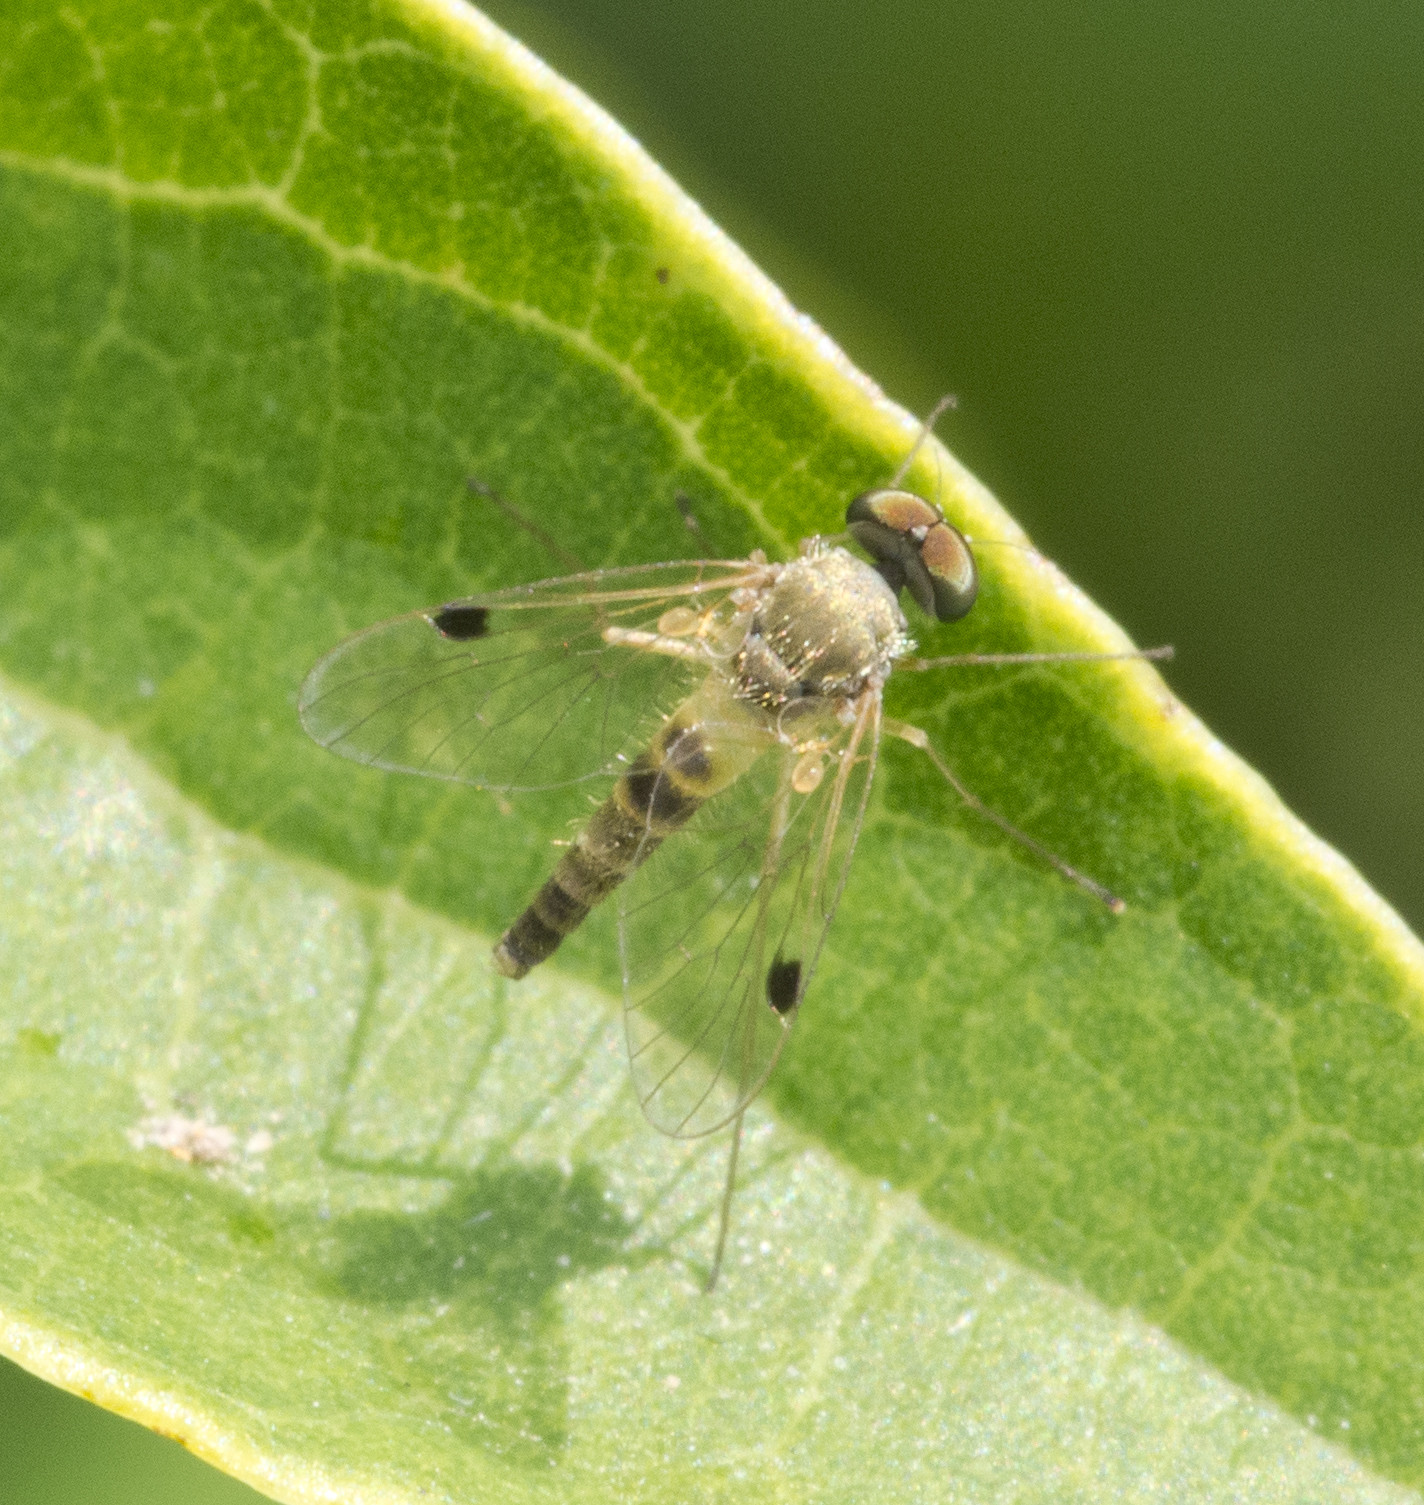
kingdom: Animalia
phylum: Arthropoda
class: Insecta
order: Diptera
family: Rhagionidae
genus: Chrysopilus
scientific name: Chrysopilus modestus
